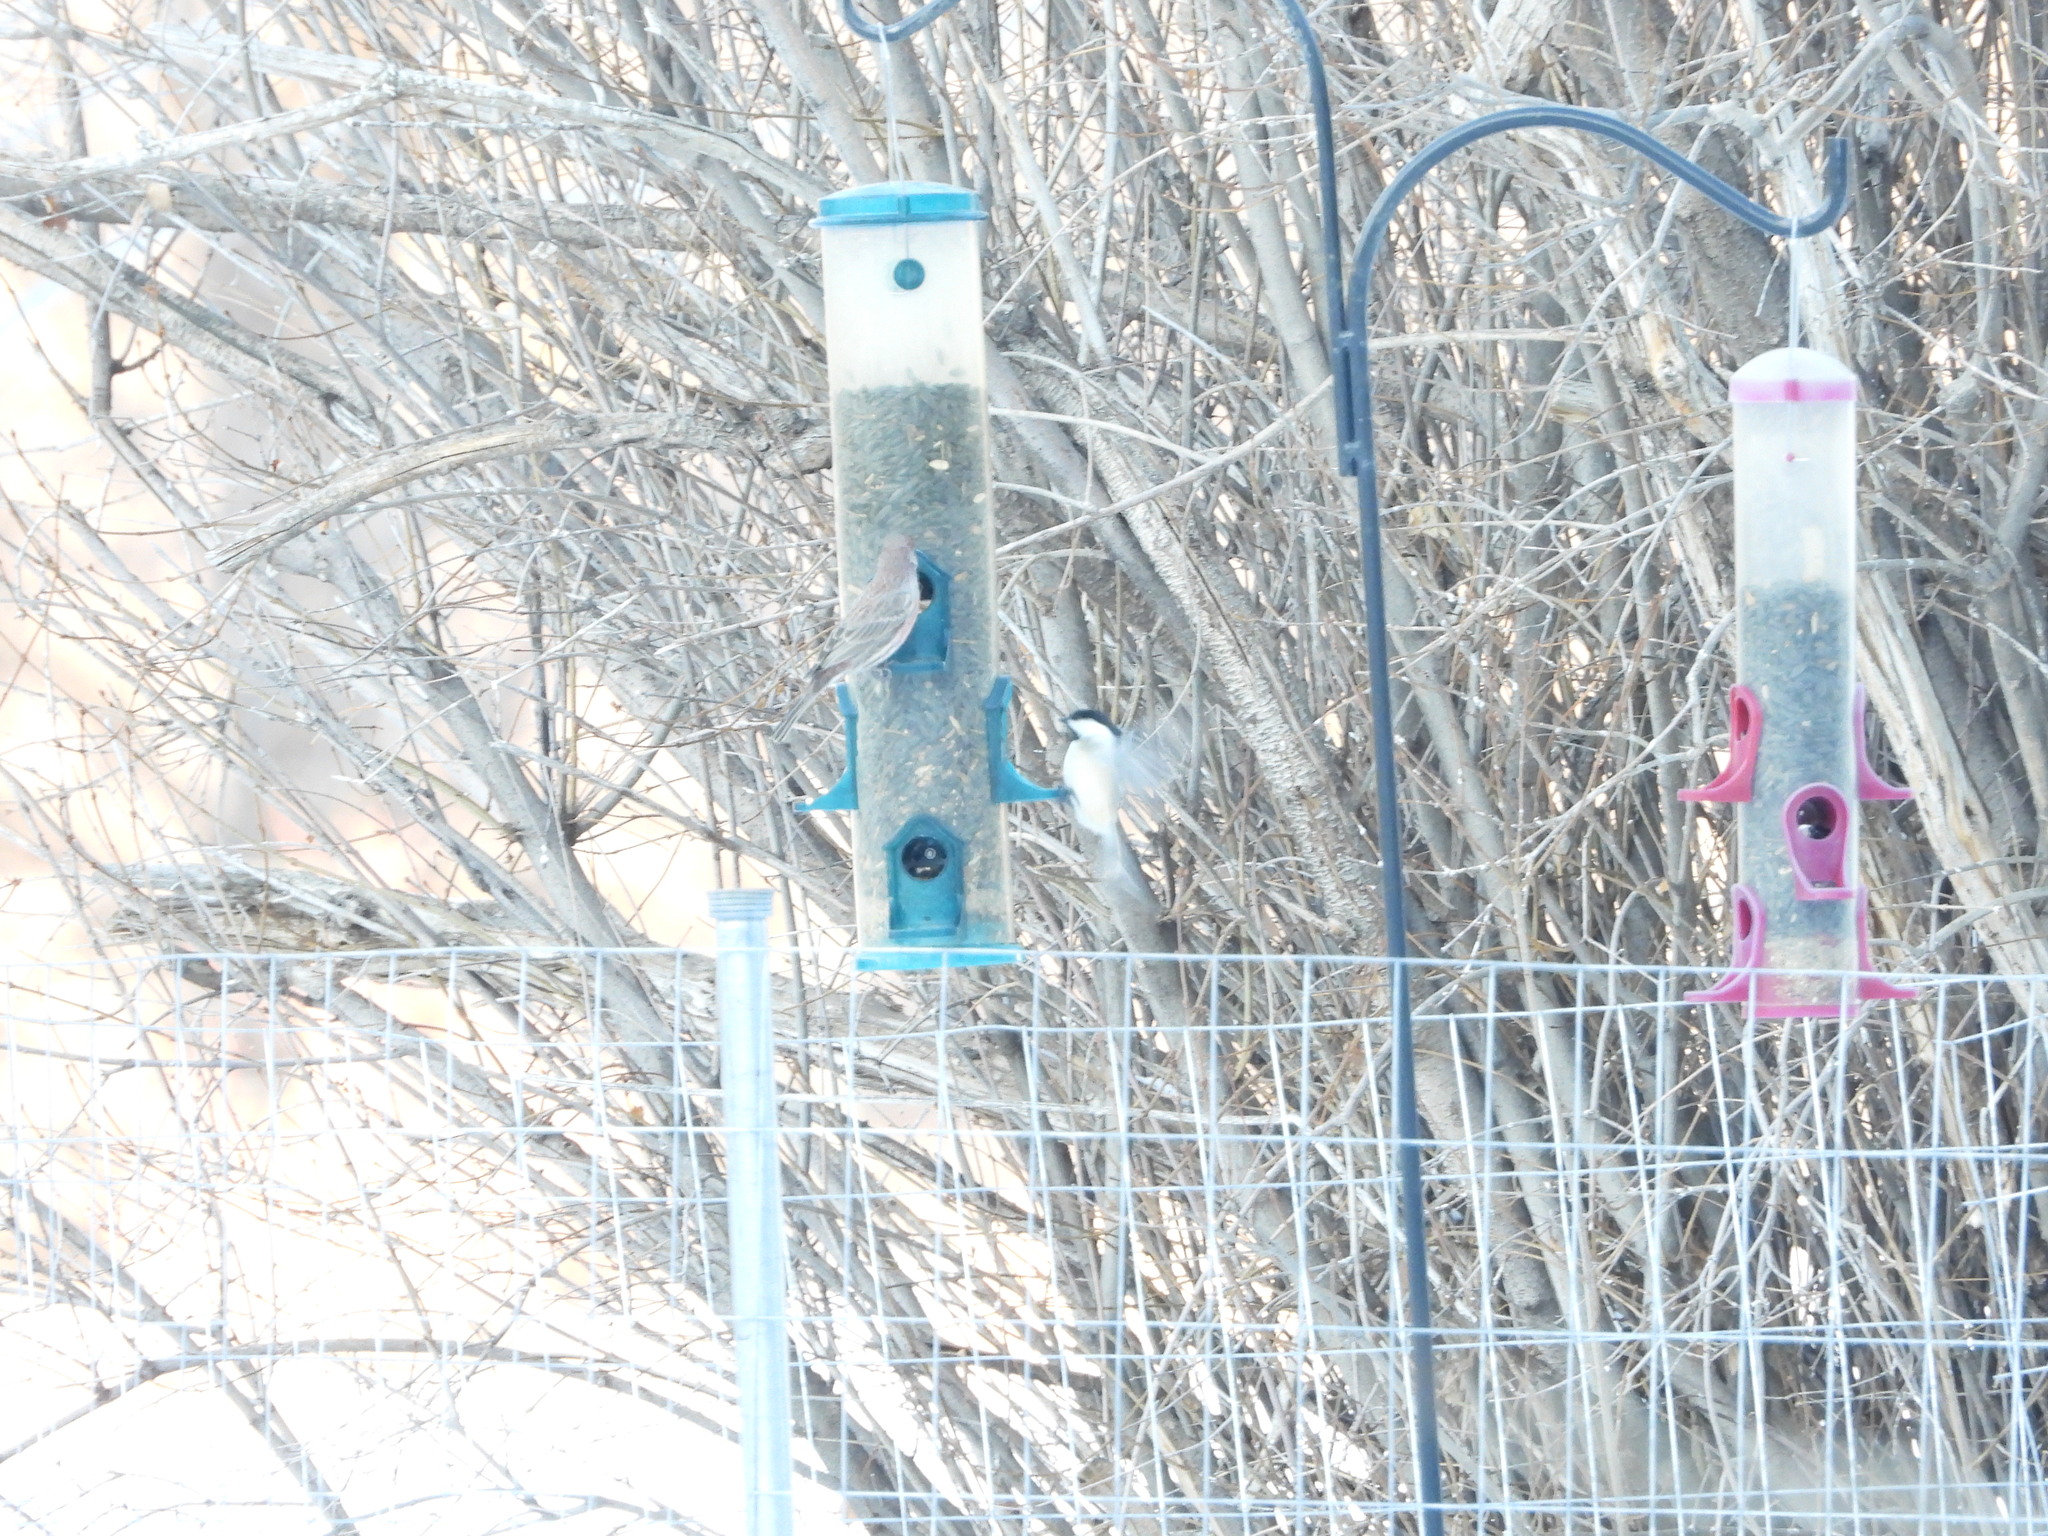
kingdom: Animalia
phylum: Chordata
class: Aves
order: Passeriformes
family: Paridae
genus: Poecile
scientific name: Poecile atricapillus
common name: Black-capped chickadee
